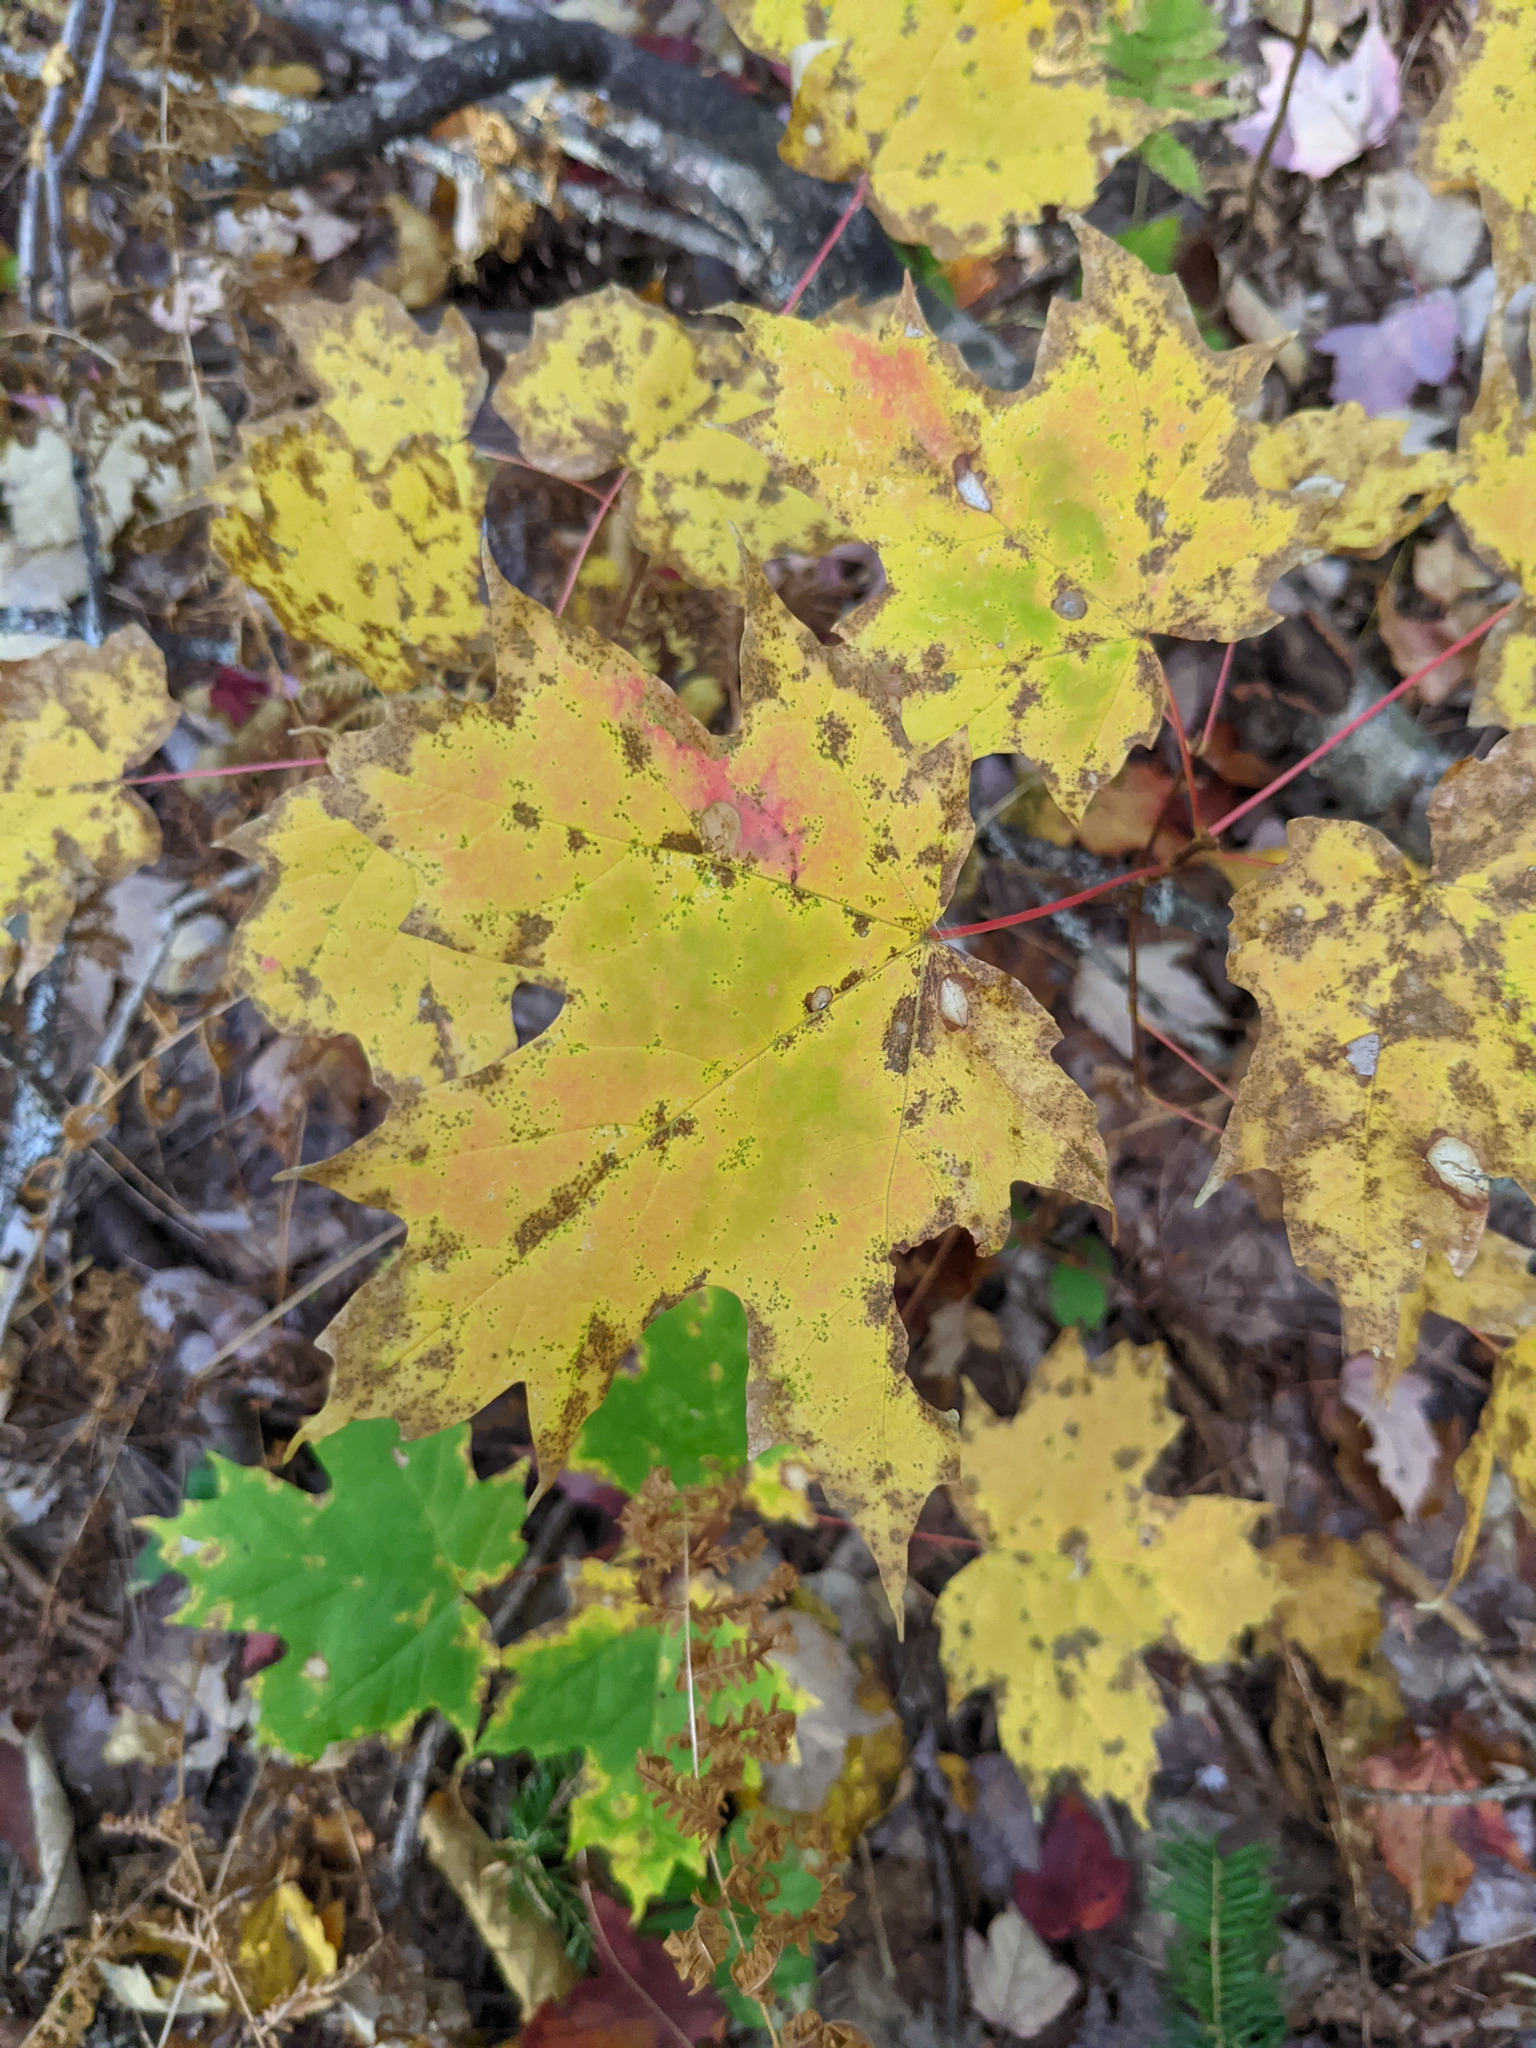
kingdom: Plantae
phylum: Tracheophyta
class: Magnoliopsida
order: Sapindales
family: Sapindaceae
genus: Acer
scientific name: Acer saccharum
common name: Sugar maple
